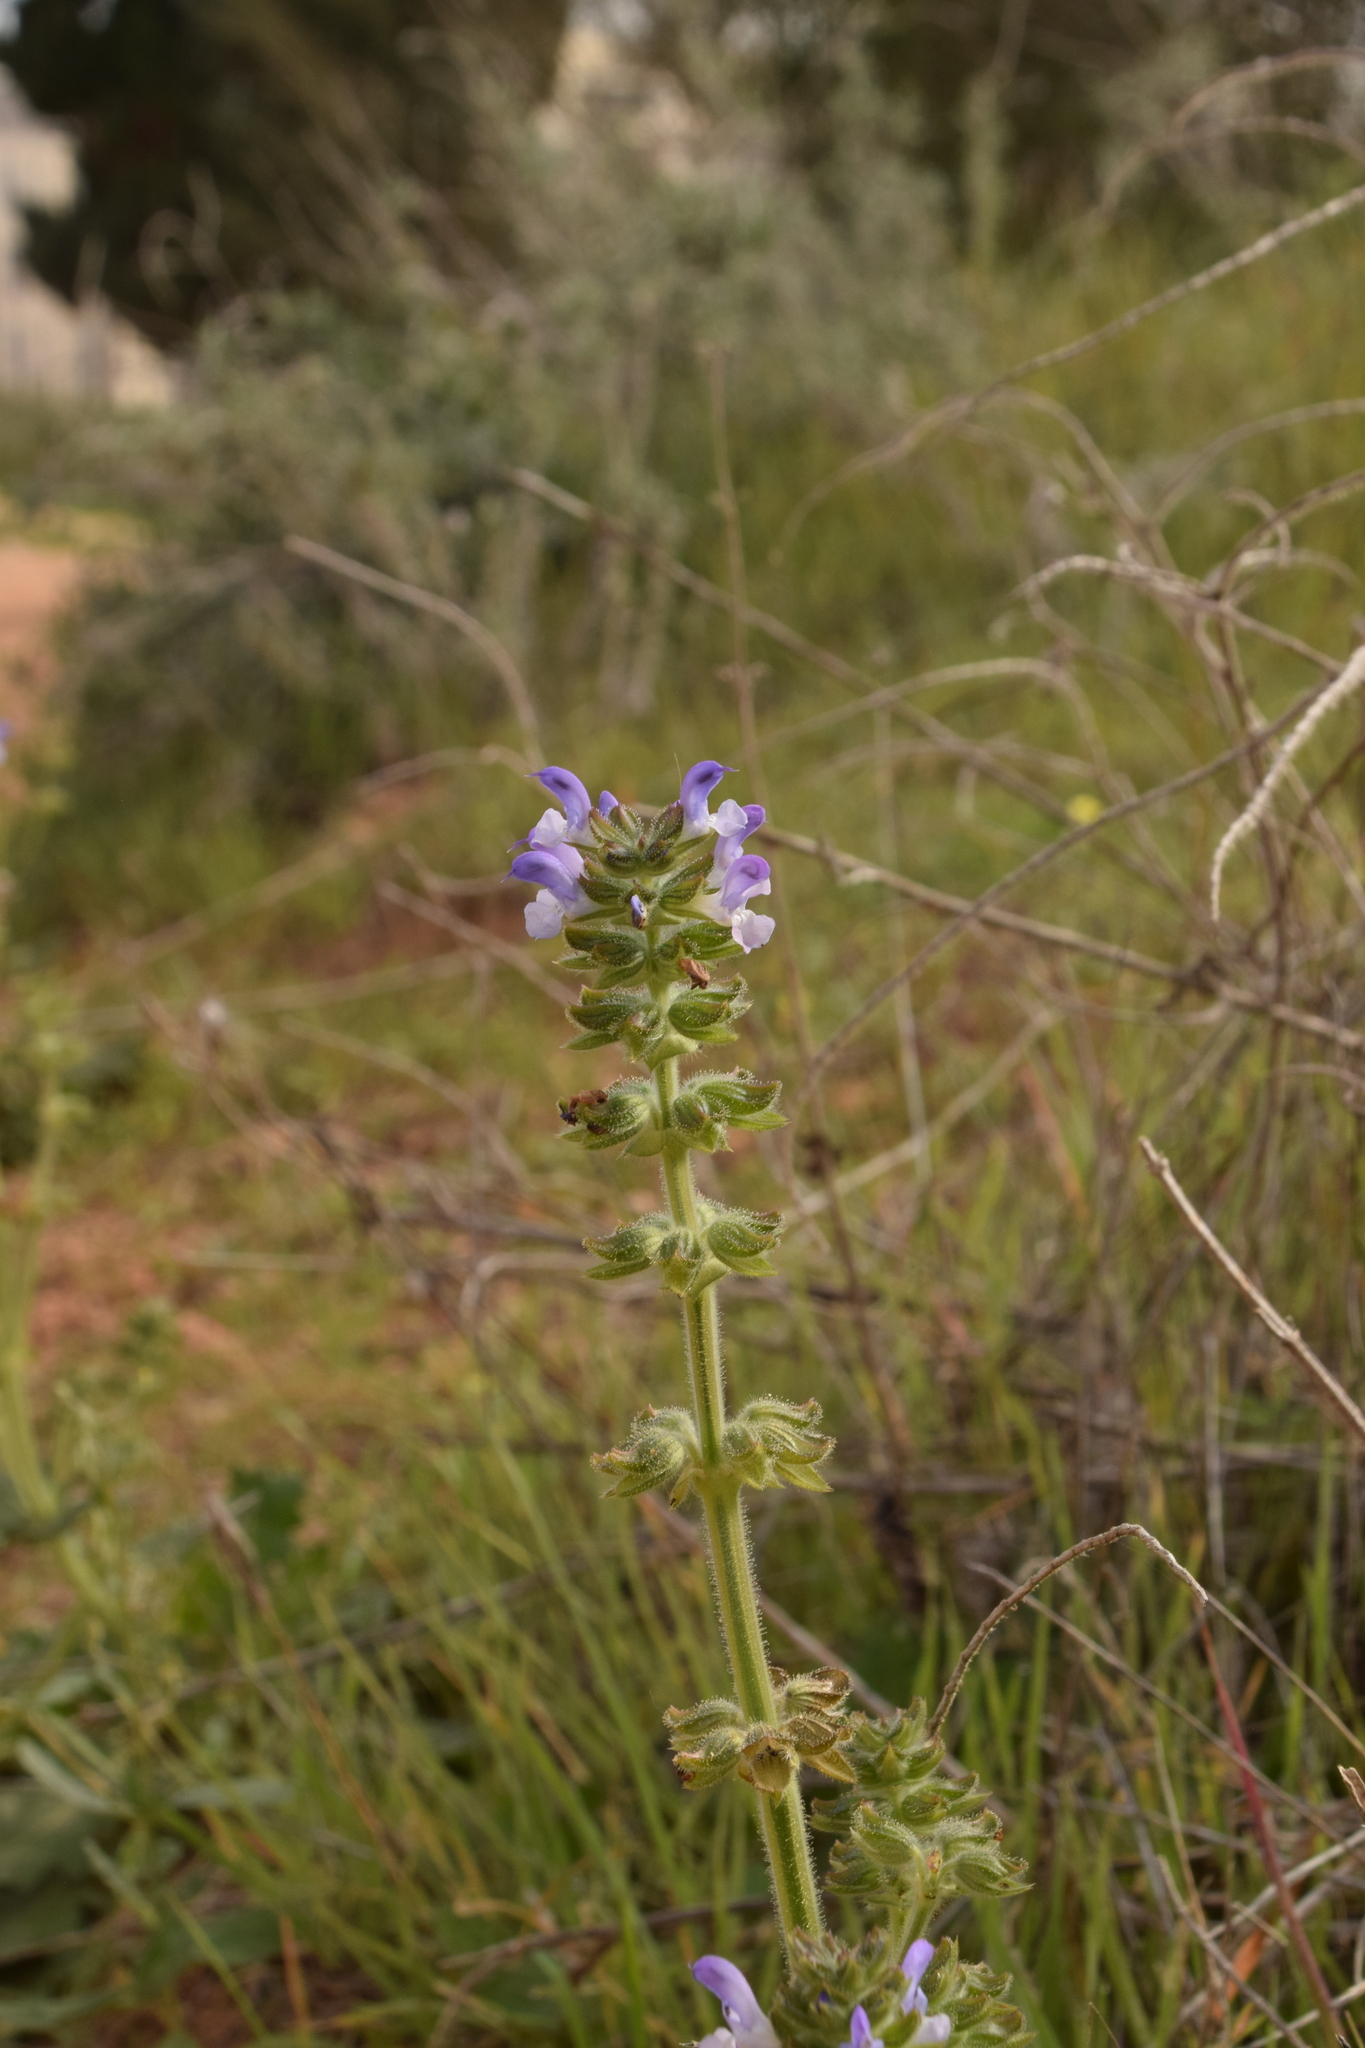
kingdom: Plantae
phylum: Tracheophyta
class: Magnoliopsida
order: Lamiales
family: Lamiaceae
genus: Salvia
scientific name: Salvia verbenaca
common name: Wild clary
